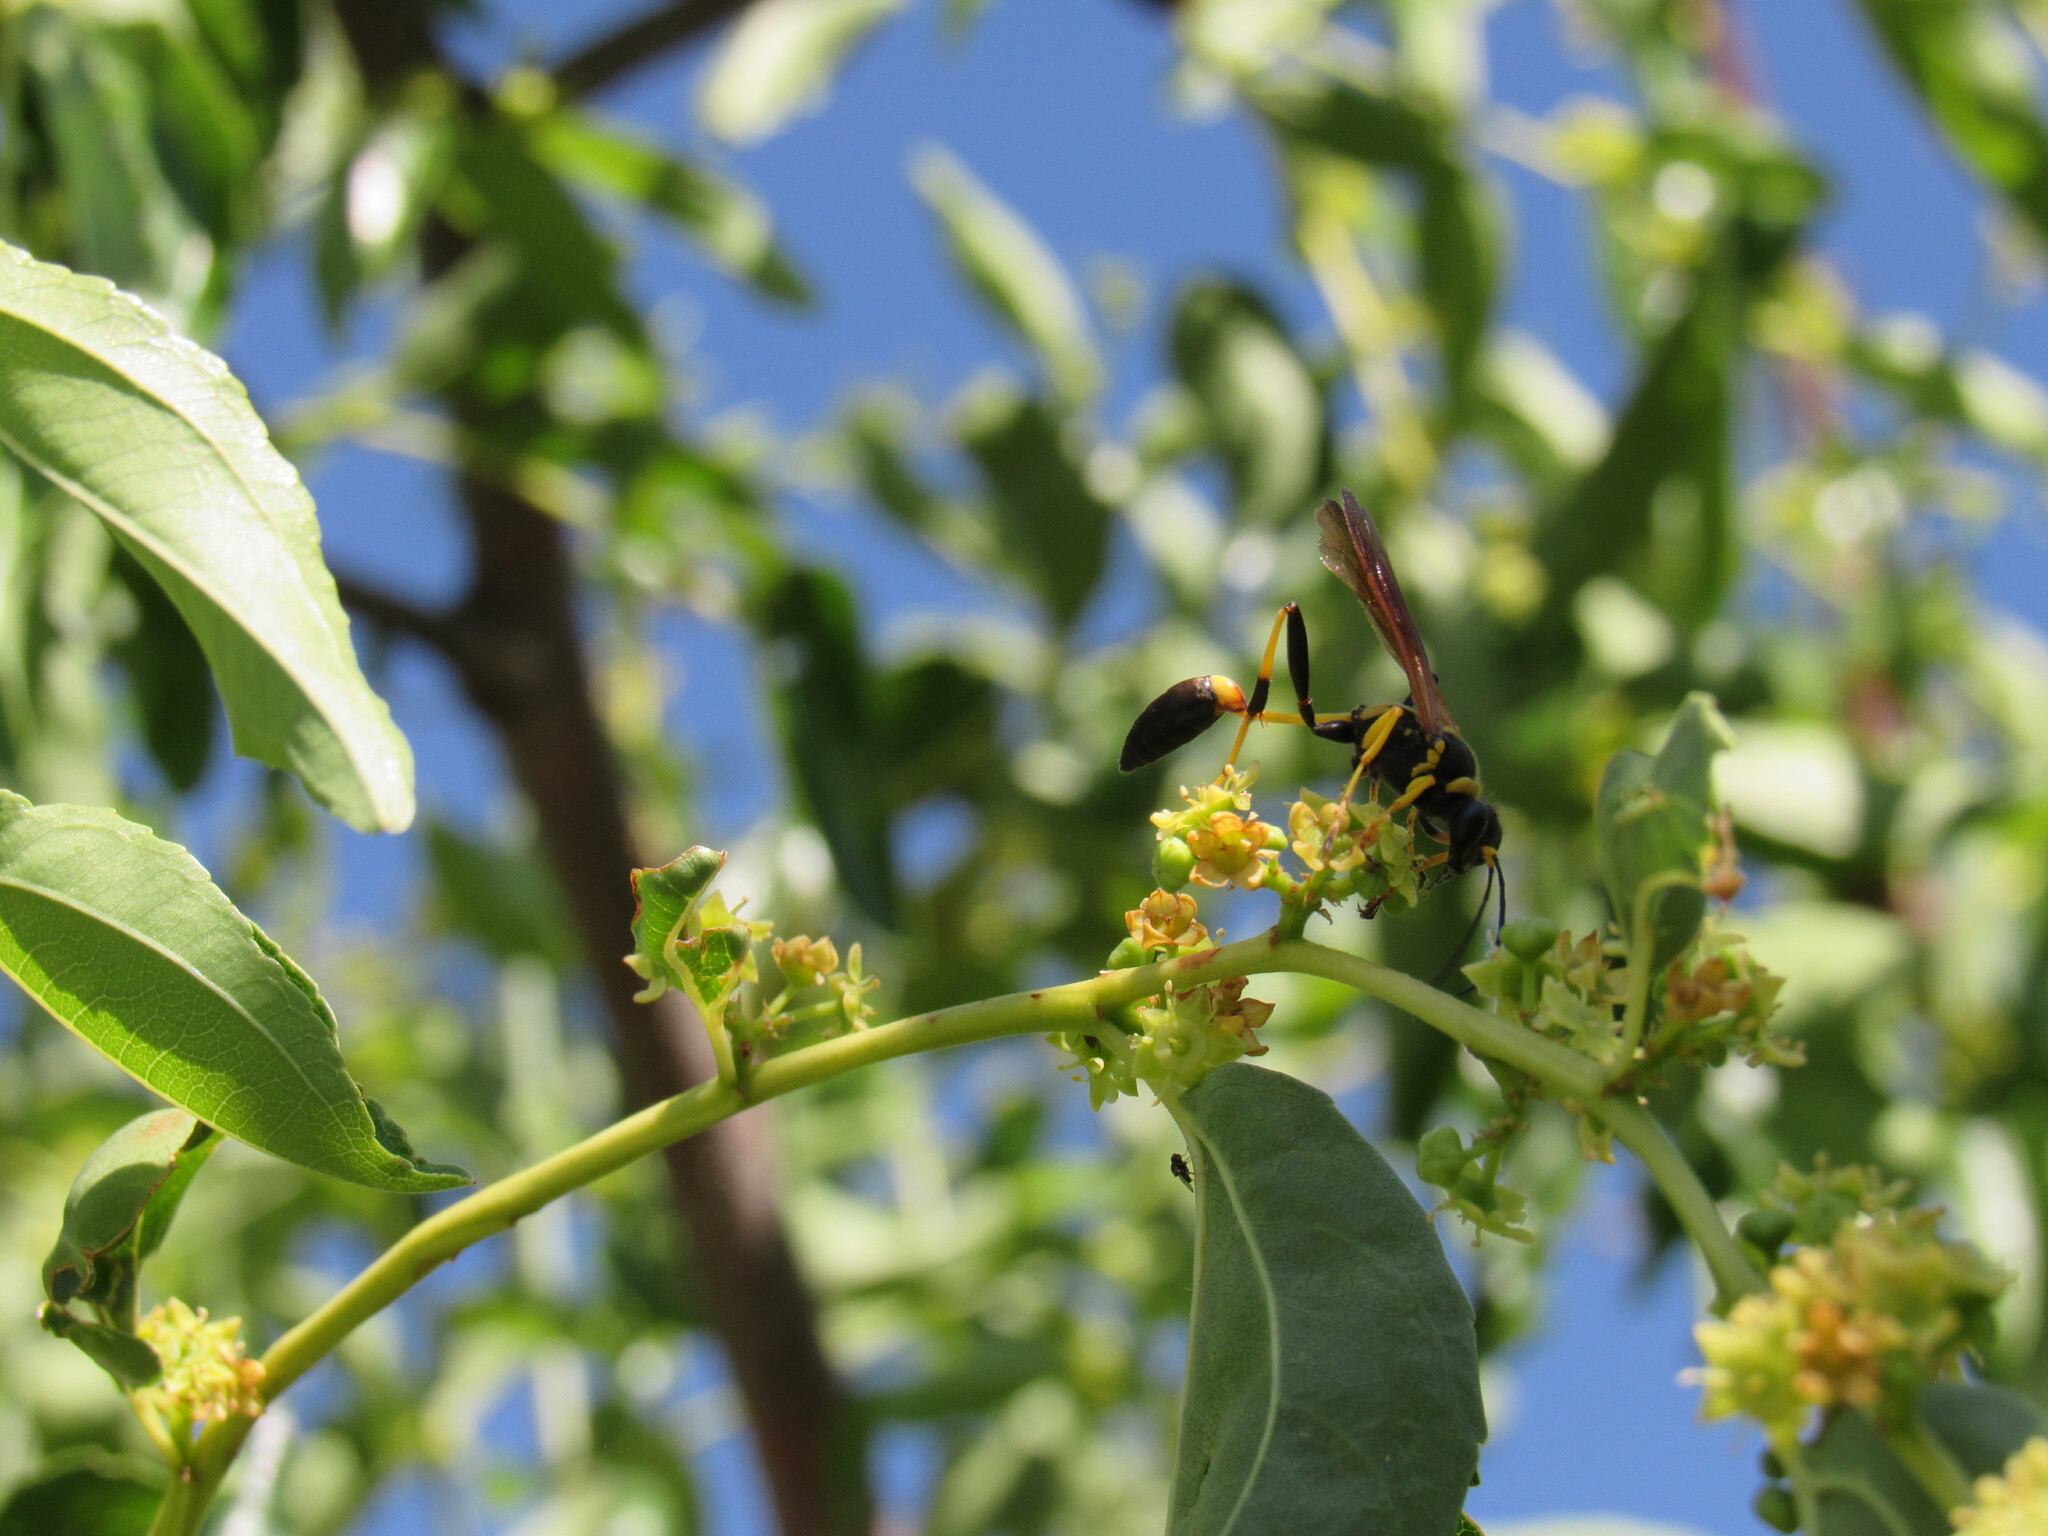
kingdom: Animalia
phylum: Arthropoda
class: Insecta
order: Hymenoptera
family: Sphecidae
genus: Sceliphron
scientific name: Sceliphron caementarium
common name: Mud dauber
